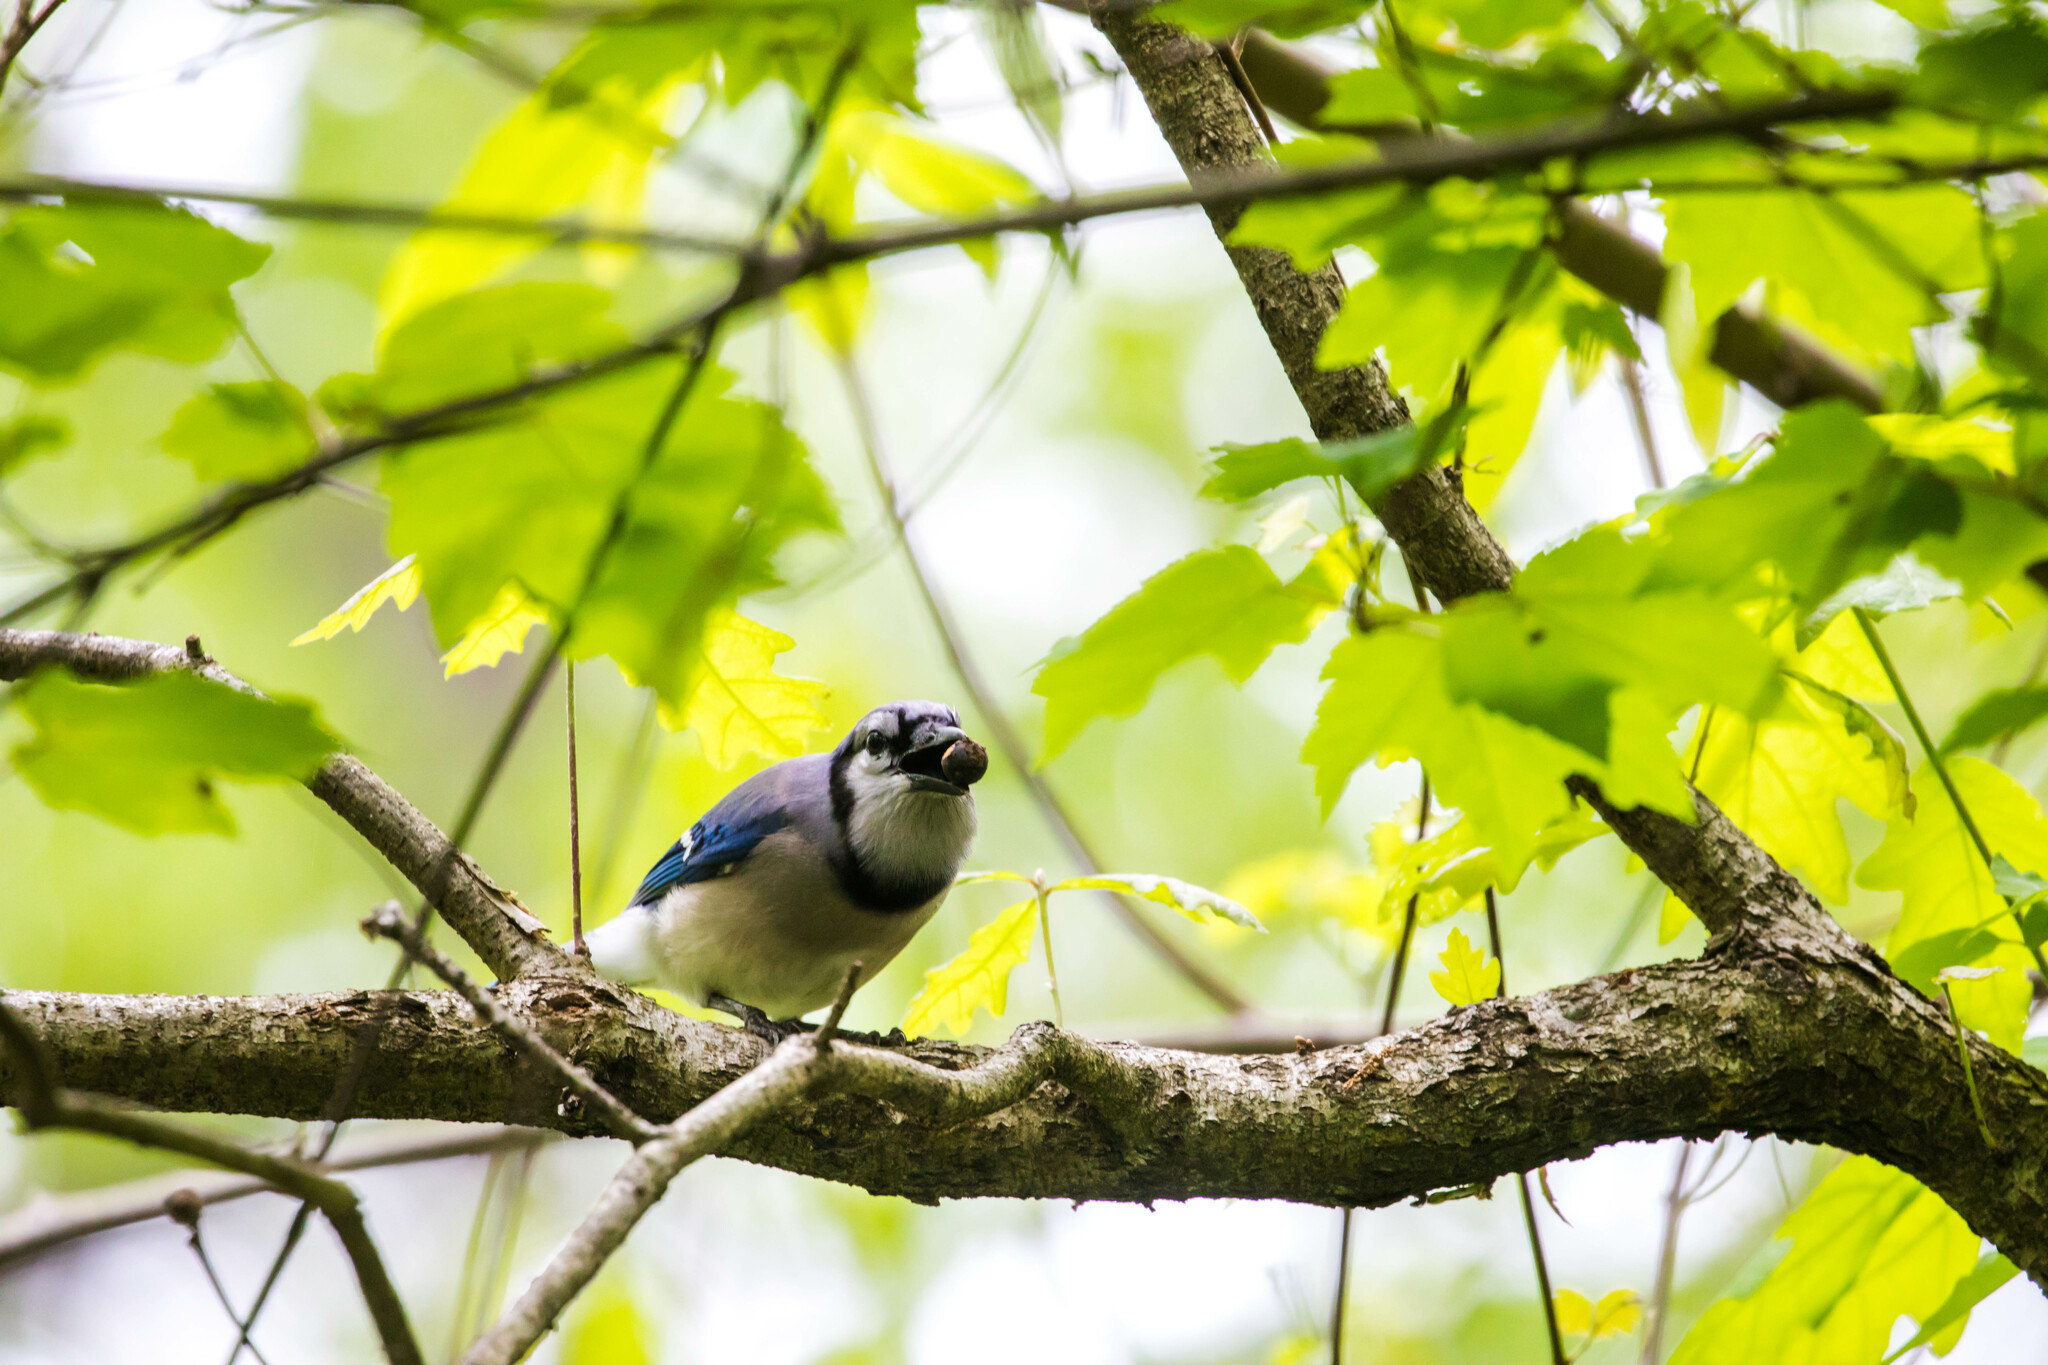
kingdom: Animalia
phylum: Chordata
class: Aves
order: Passeriformes
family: Corvidae
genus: Cyanocitta
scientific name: Cyanocitta cristata
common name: Blue jay
